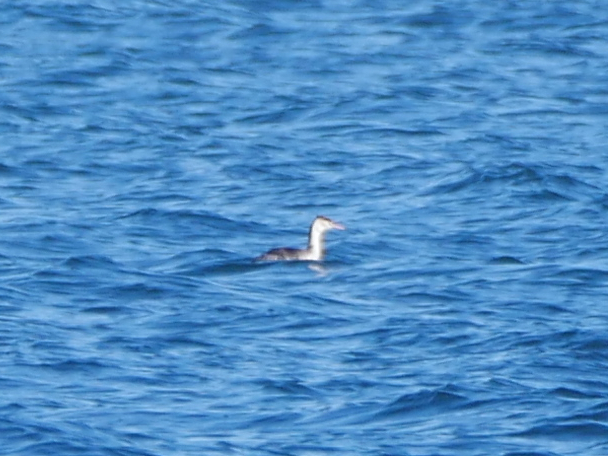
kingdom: Animalia
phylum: Chordata
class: Aves
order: Podicipediformes
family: Podicipedidae
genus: Podiceps
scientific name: Podiceps cristatus
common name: Great crested grebe
